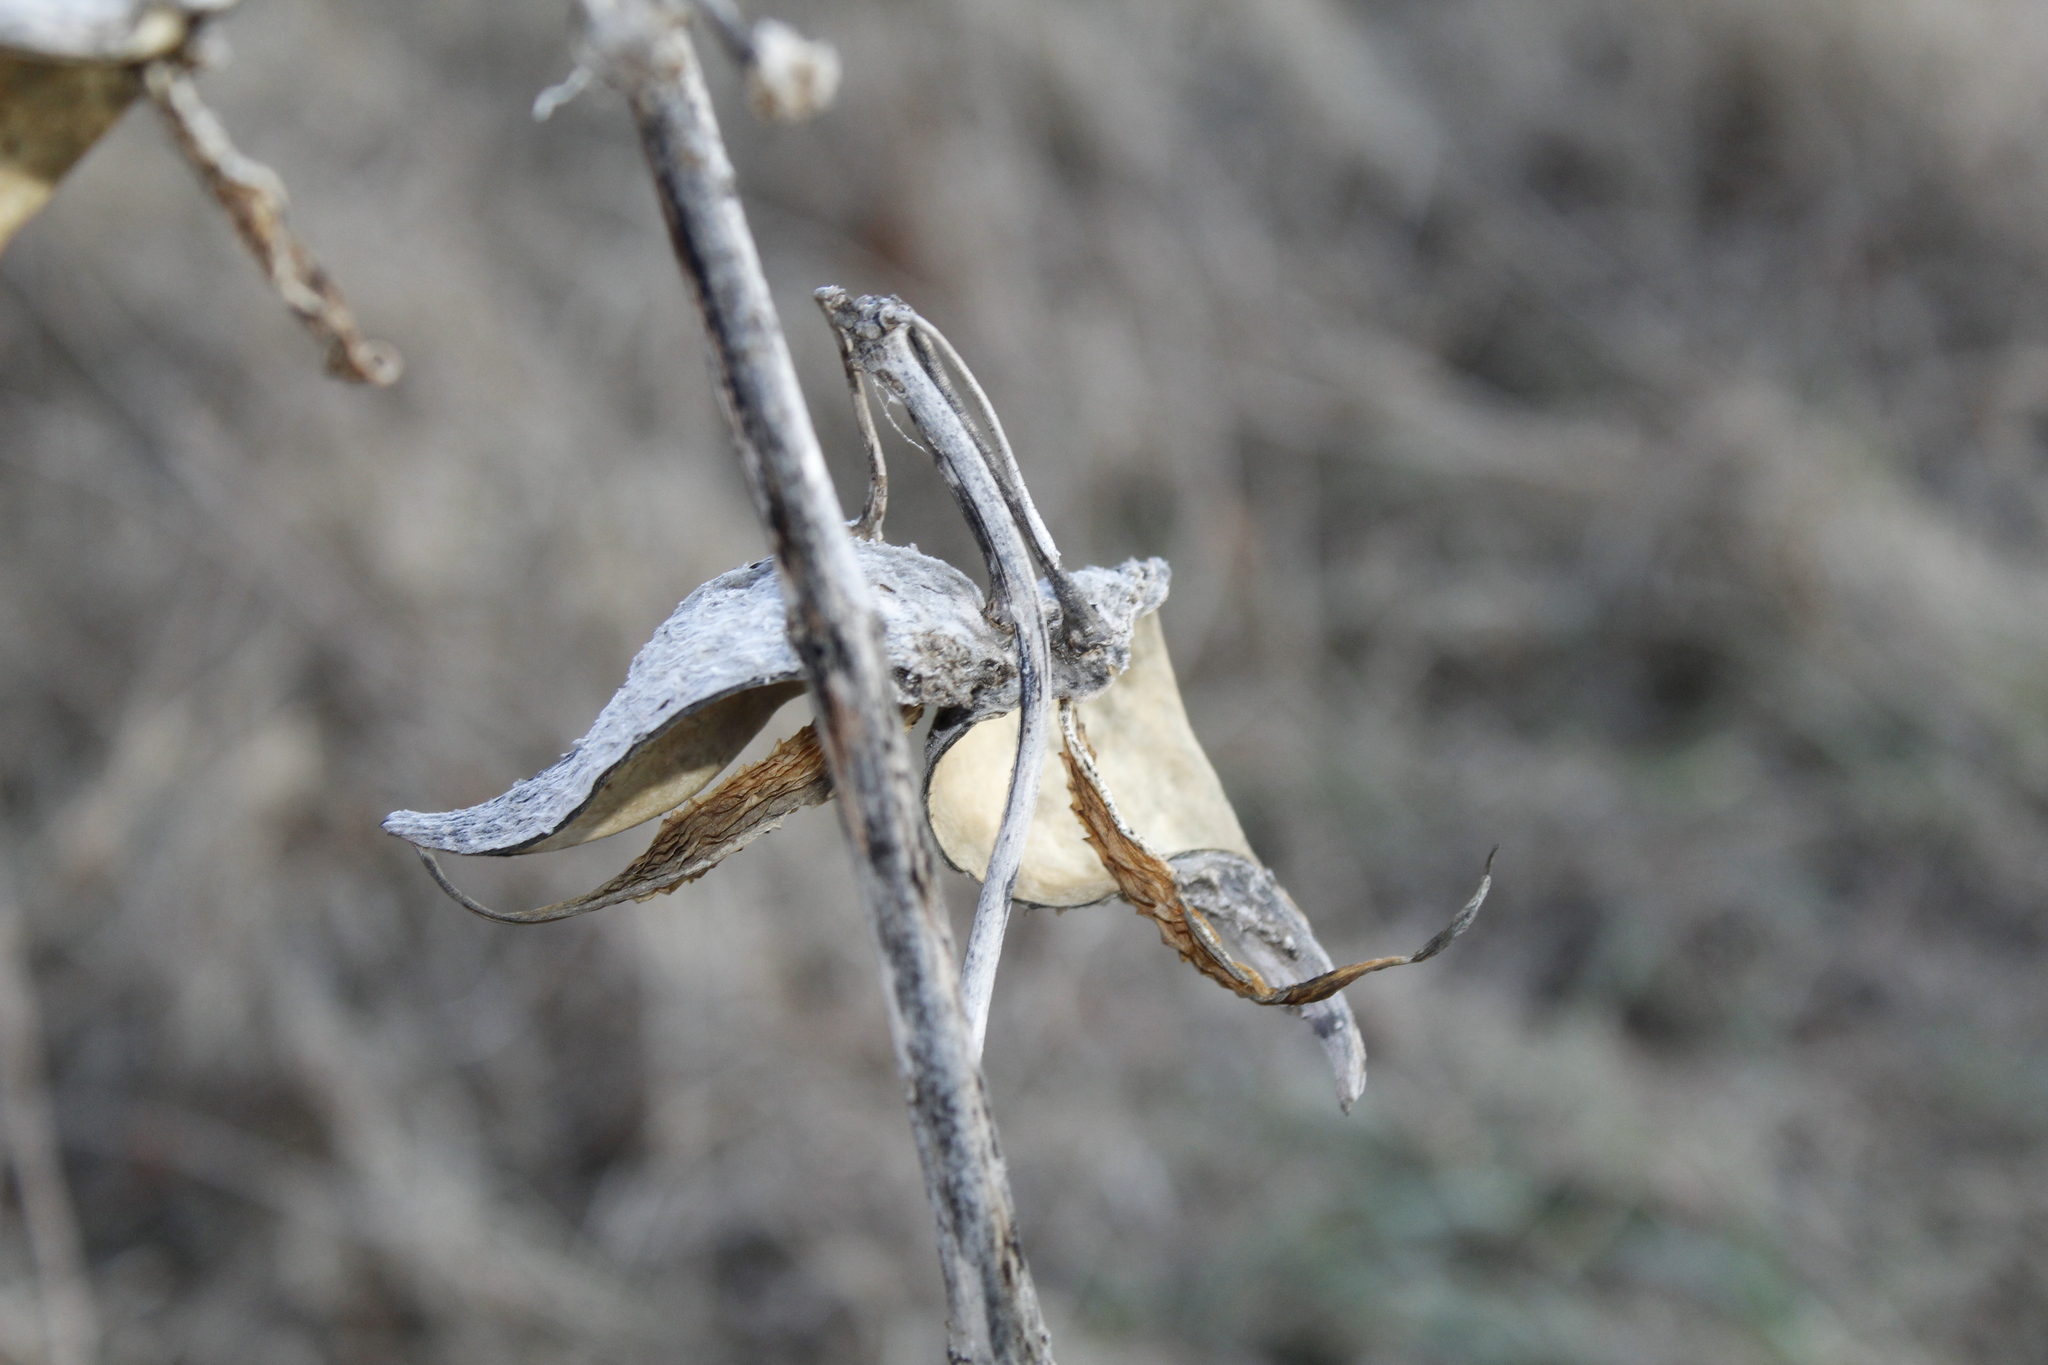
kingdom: Plantae
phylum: Tracheophyta
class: Magnoliopsida
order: Gentianales
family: Apocynaceae
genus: Asclepias
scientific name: Asclepias syriaca
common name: Common milkweed
